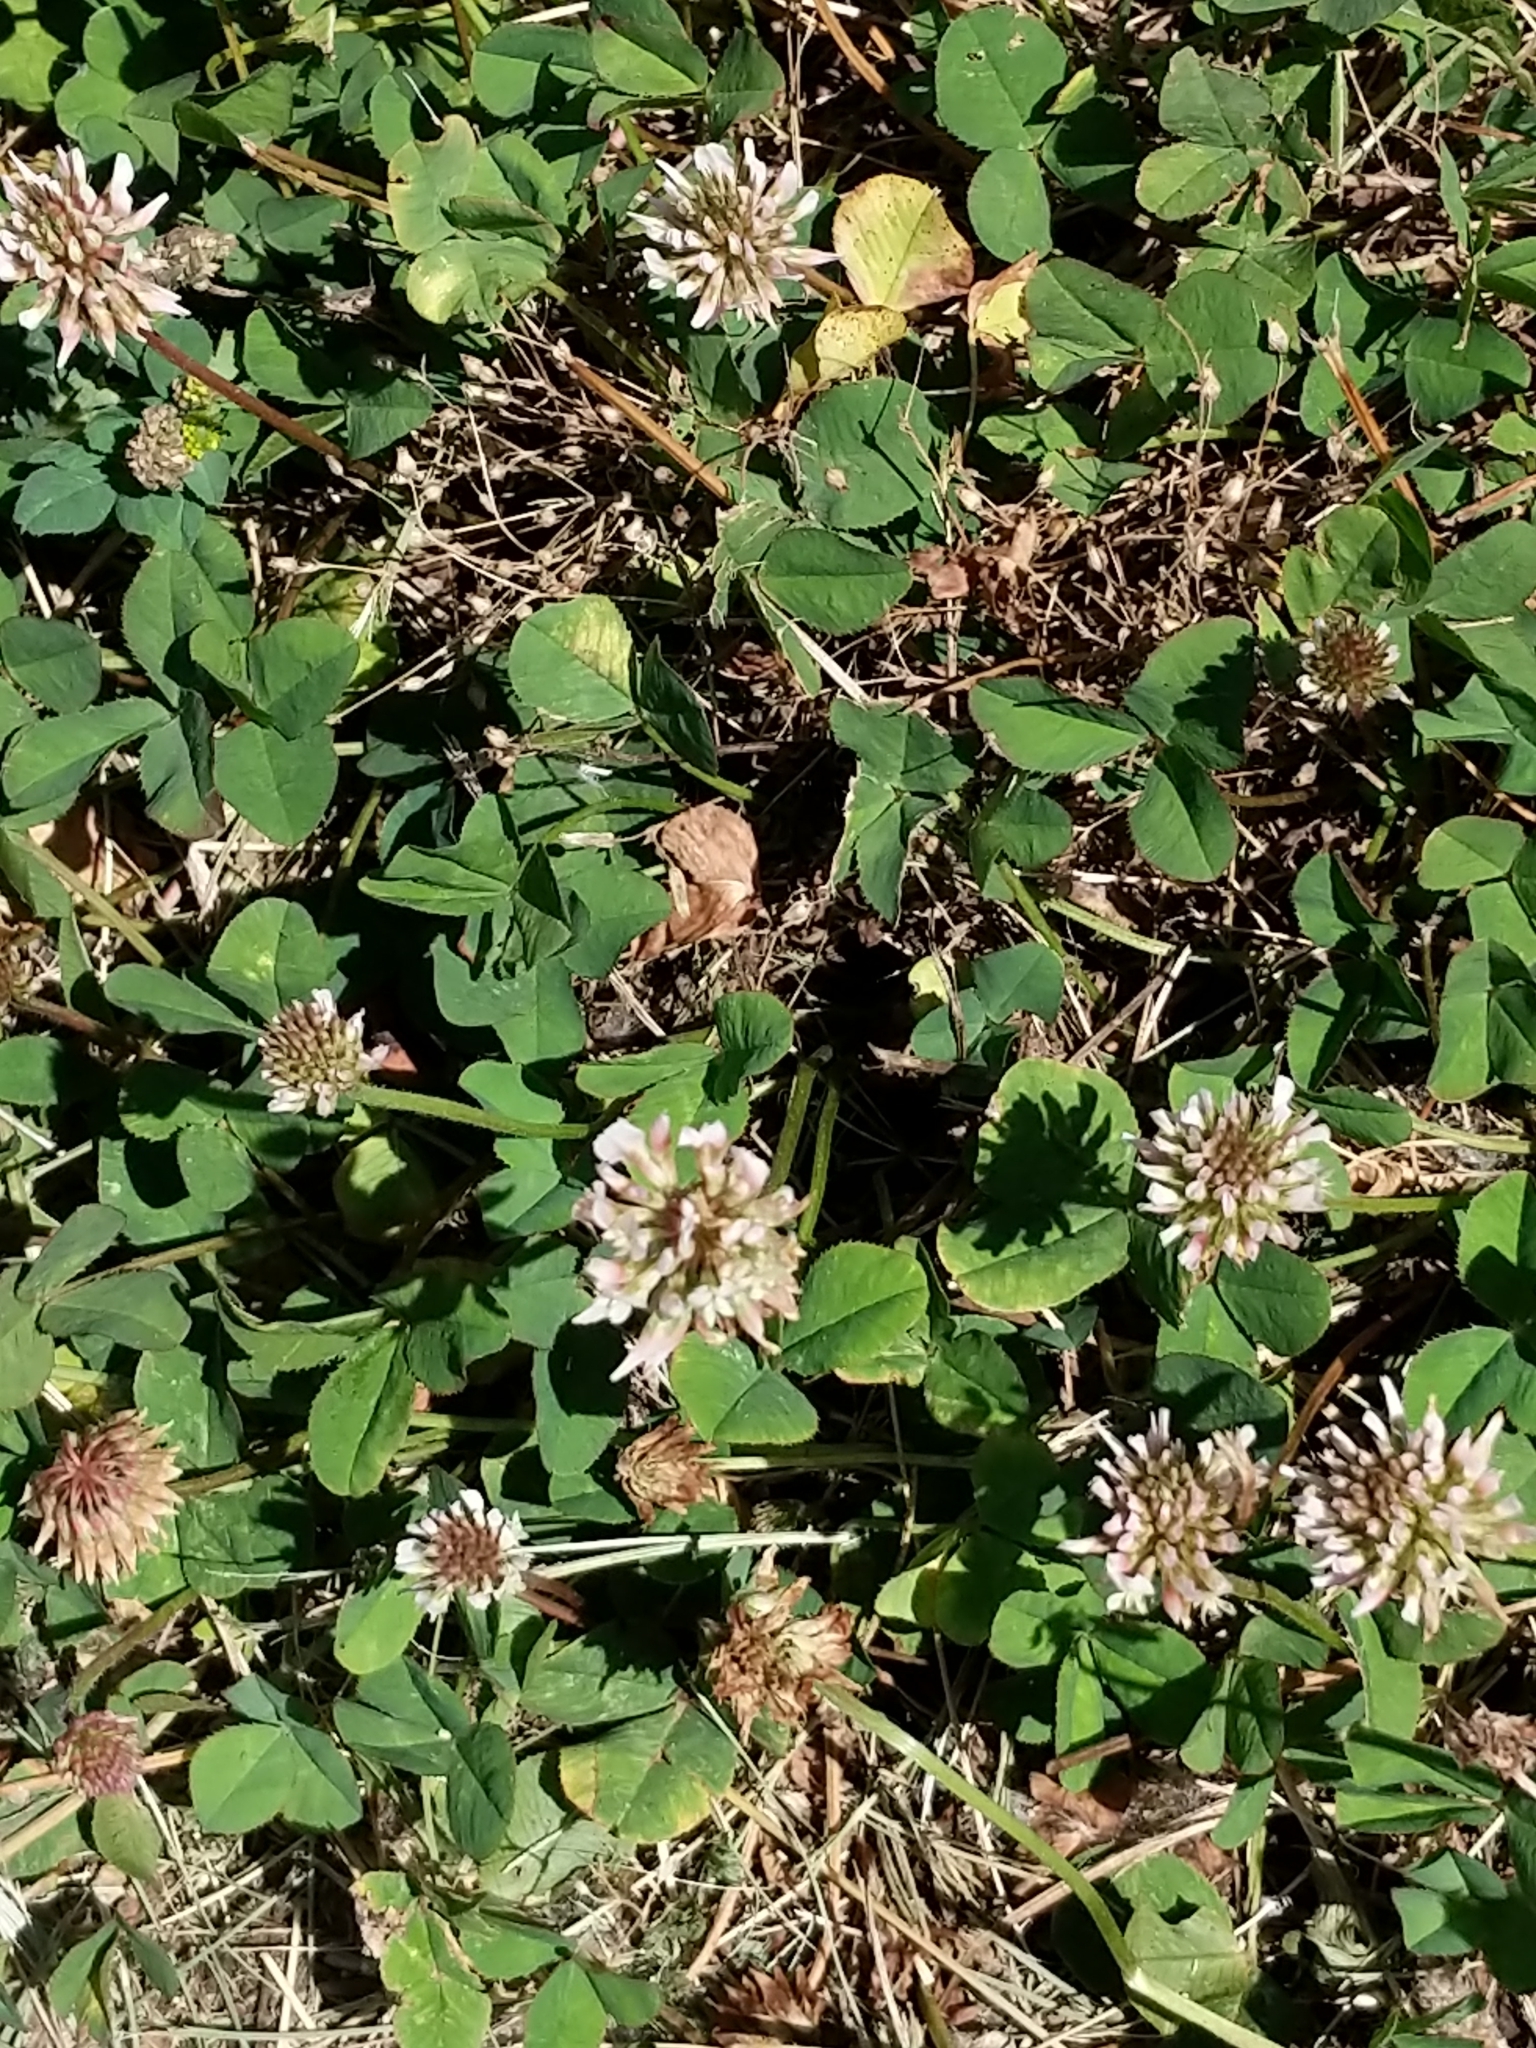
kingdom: Plantae
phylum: Tracheophyta
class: Magnoliopsida
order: Fabales
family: Fabaceae
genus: Trifolium
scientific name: Trifolium repens
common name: White clover
